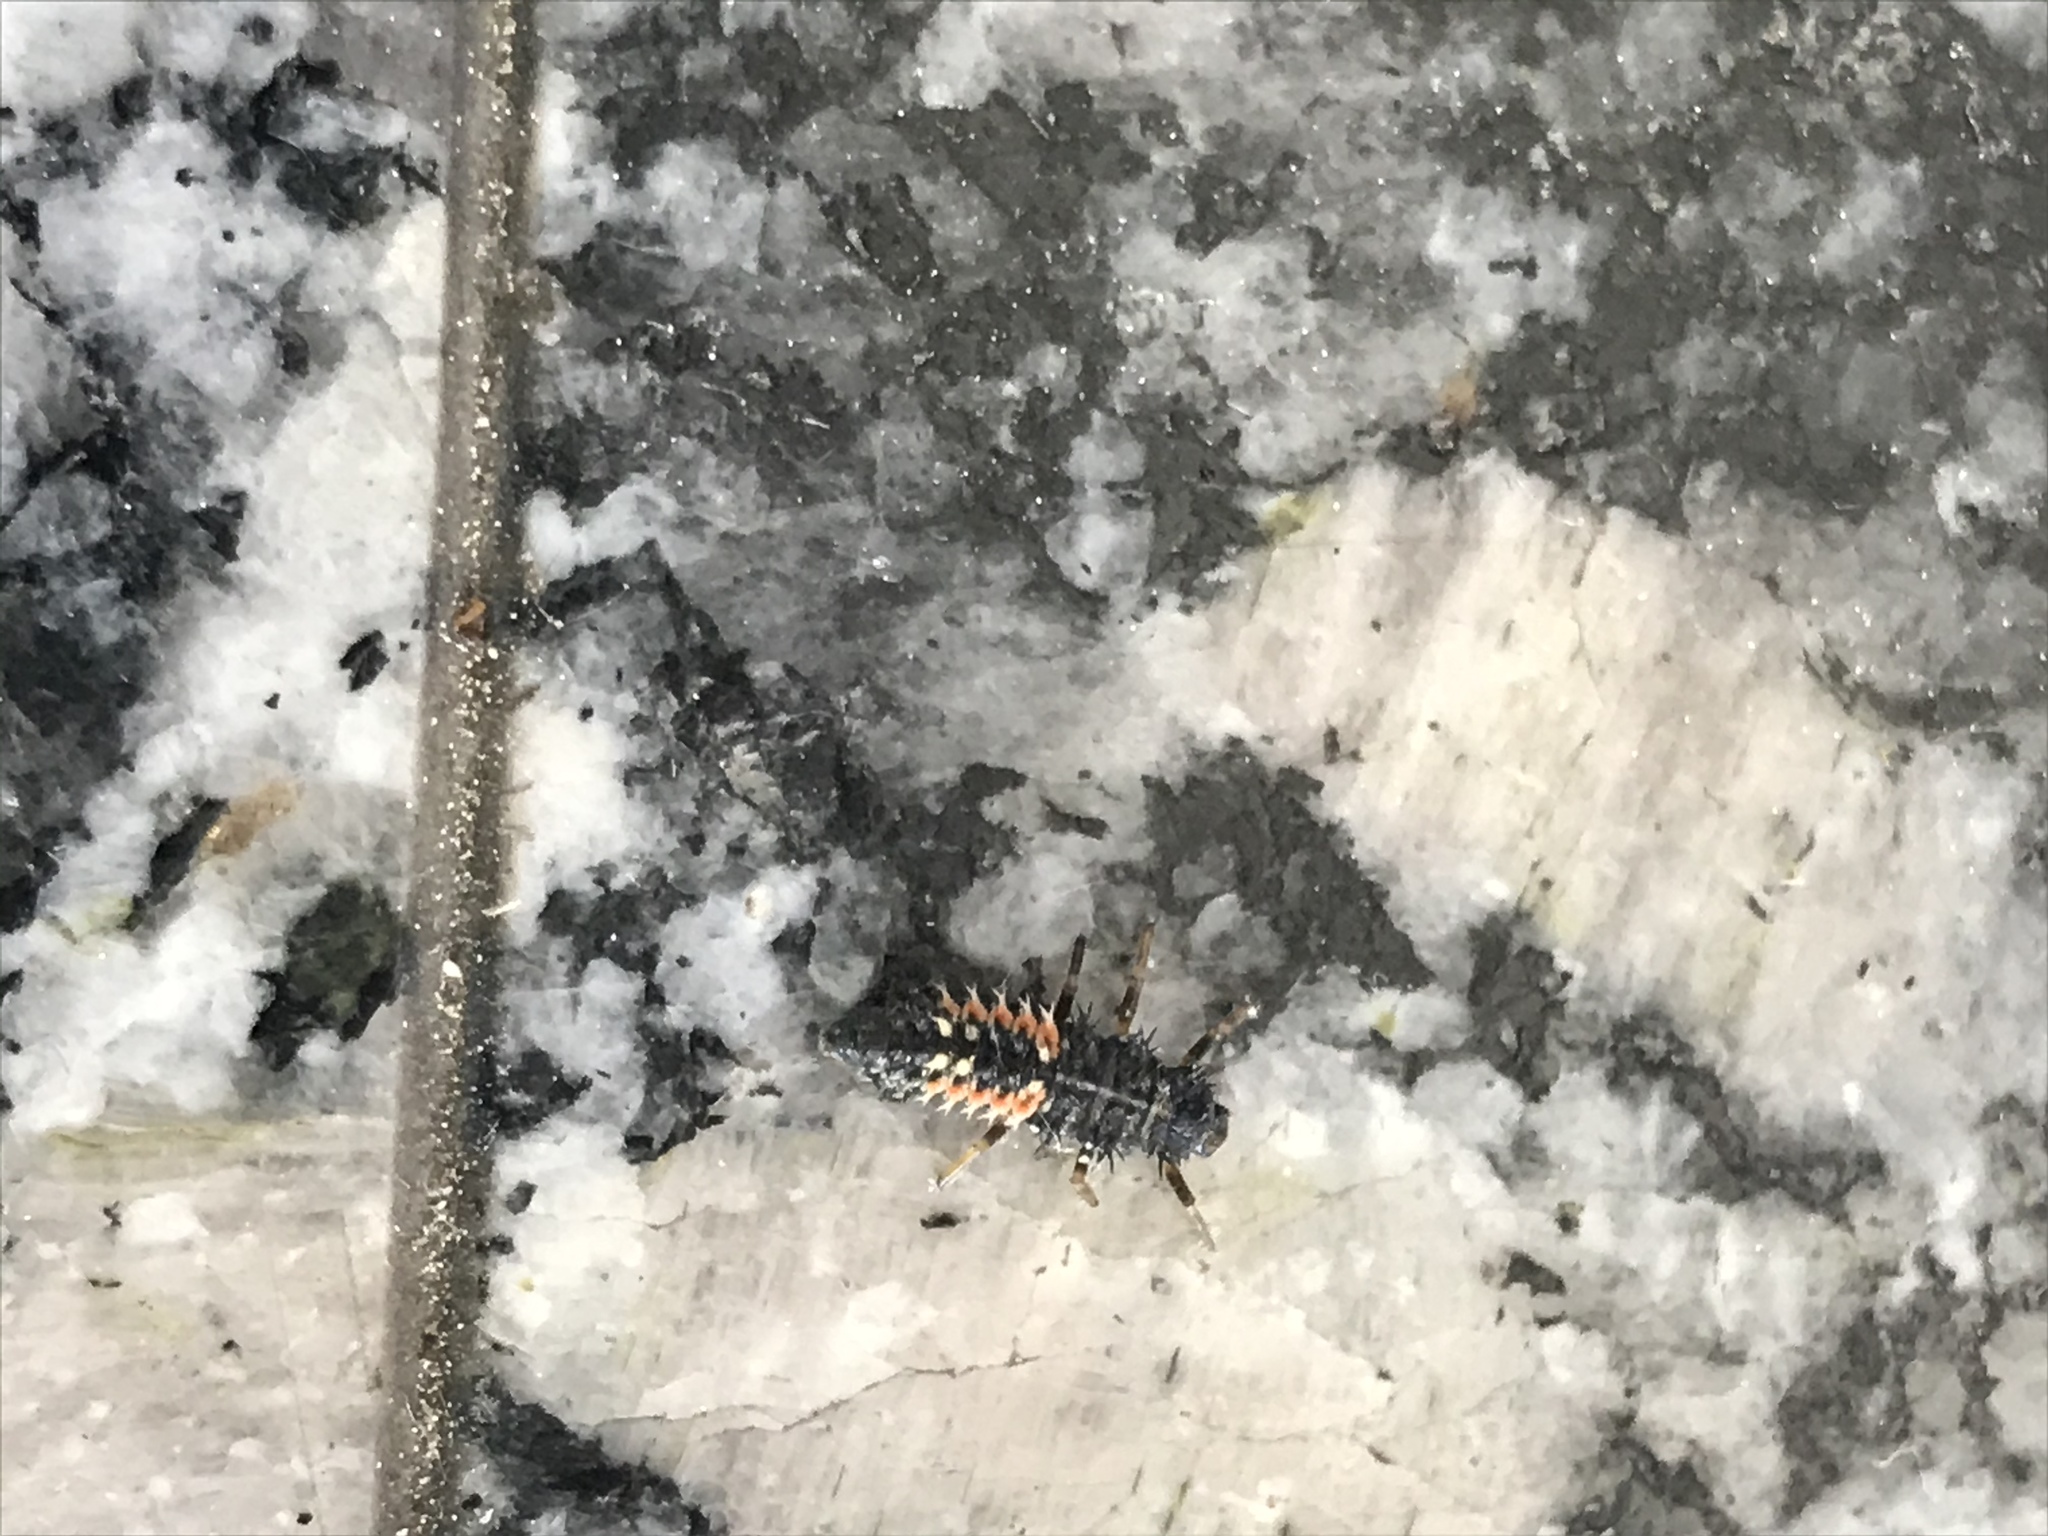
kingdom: Animalia
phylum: Arthropoda
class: Insecta
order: Coleoptera
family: Coccinellidae
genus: Harmonia
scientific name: Harmonia axyridis
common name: Harlequin ladybird
